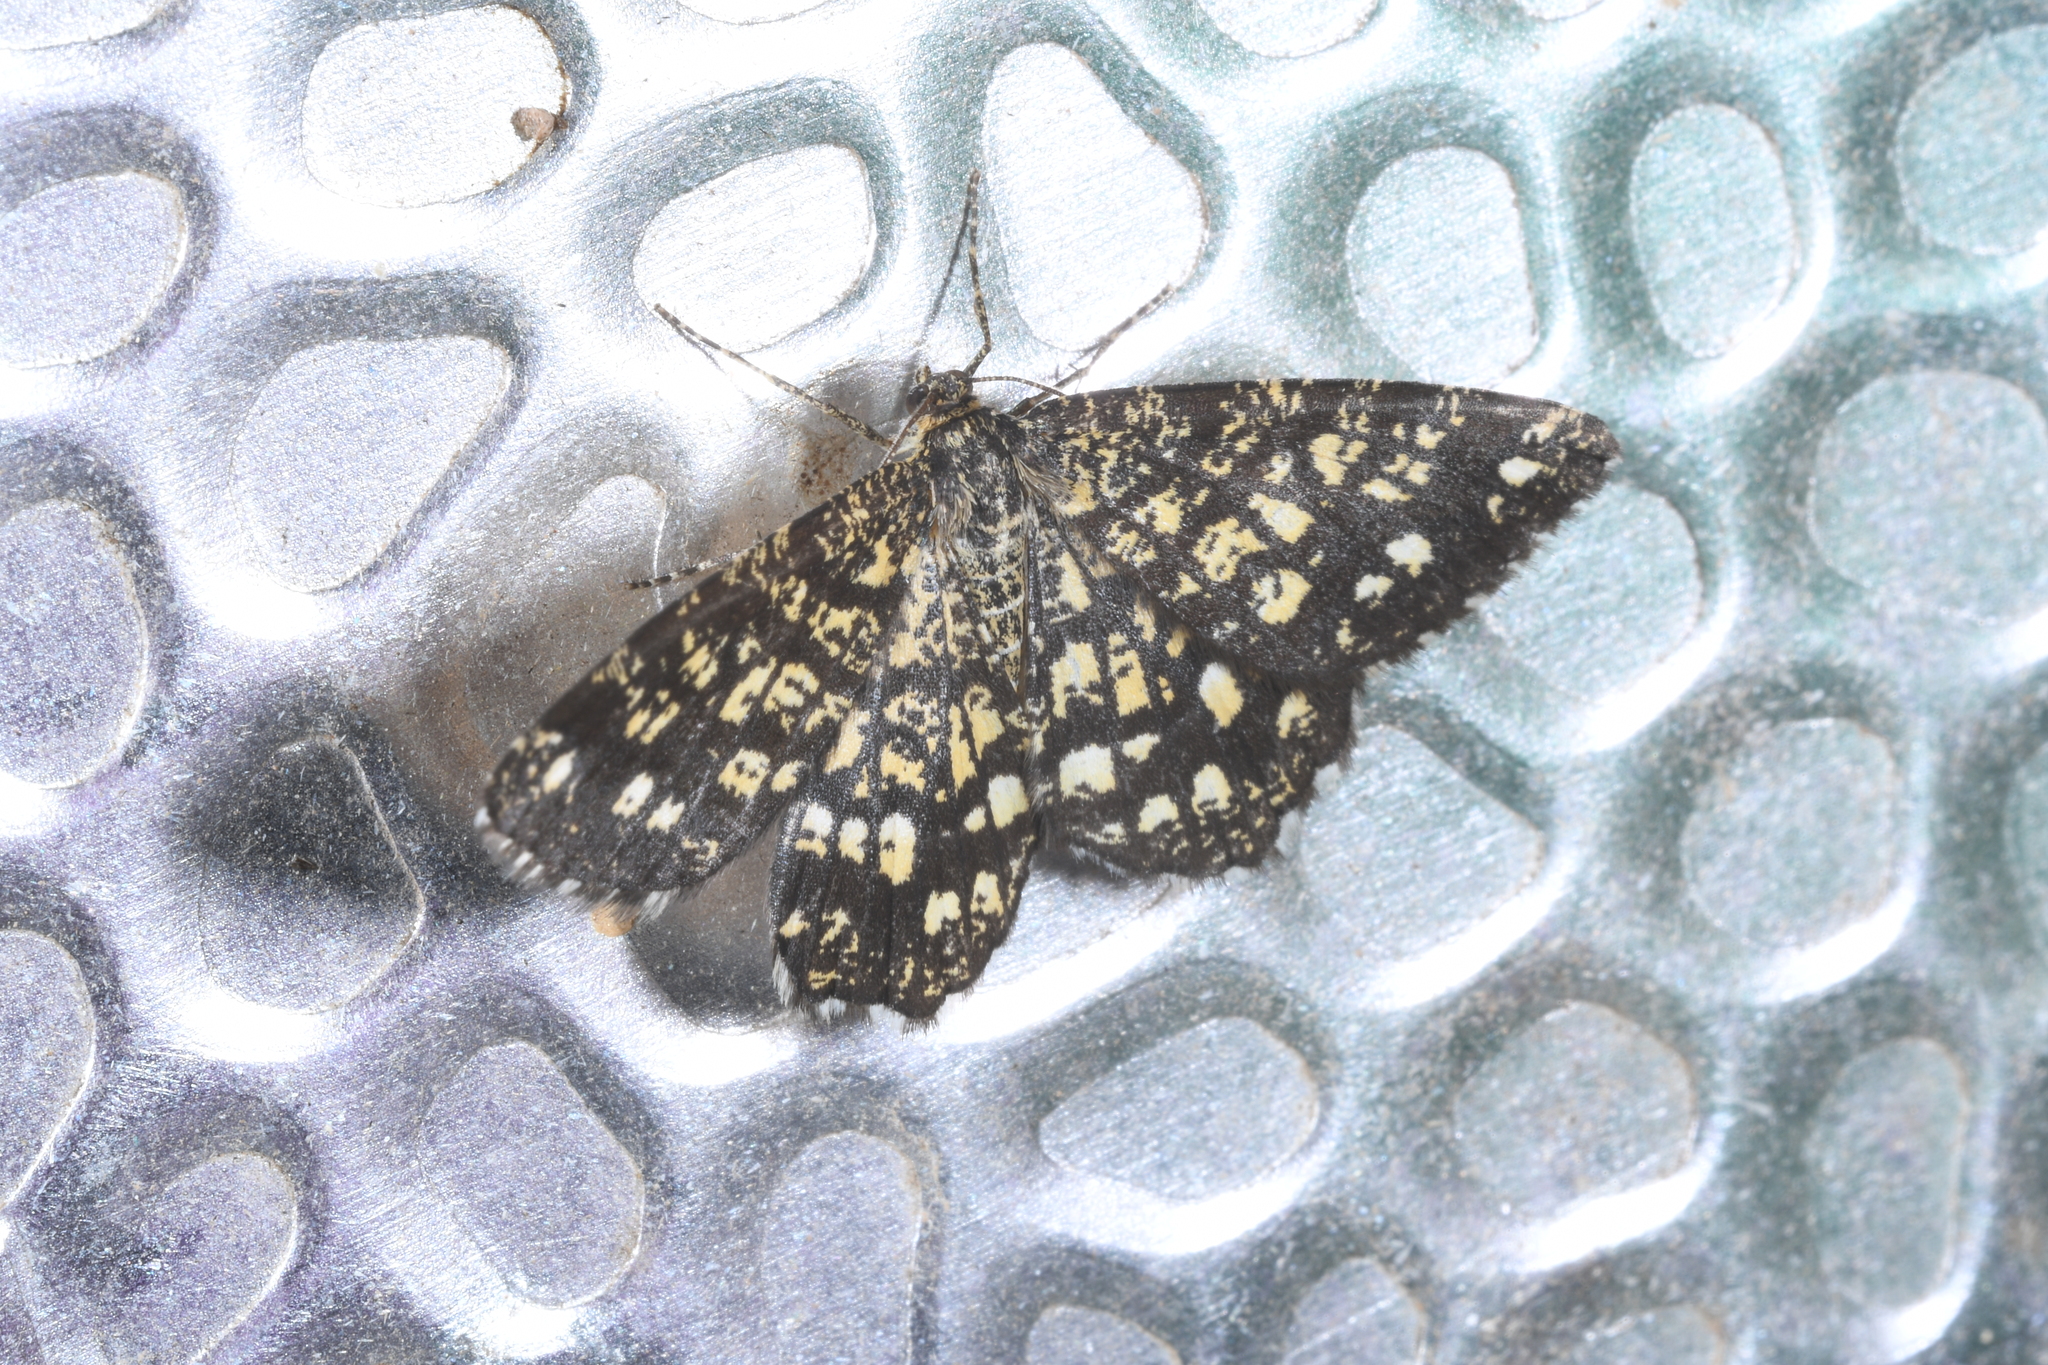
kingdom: Animalia
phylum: Arthropoda
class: Insecta
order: Lepidoptera
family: Geometridae
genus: Chiasmia
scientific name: Chiasmia clathrata
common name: Latticed heath
